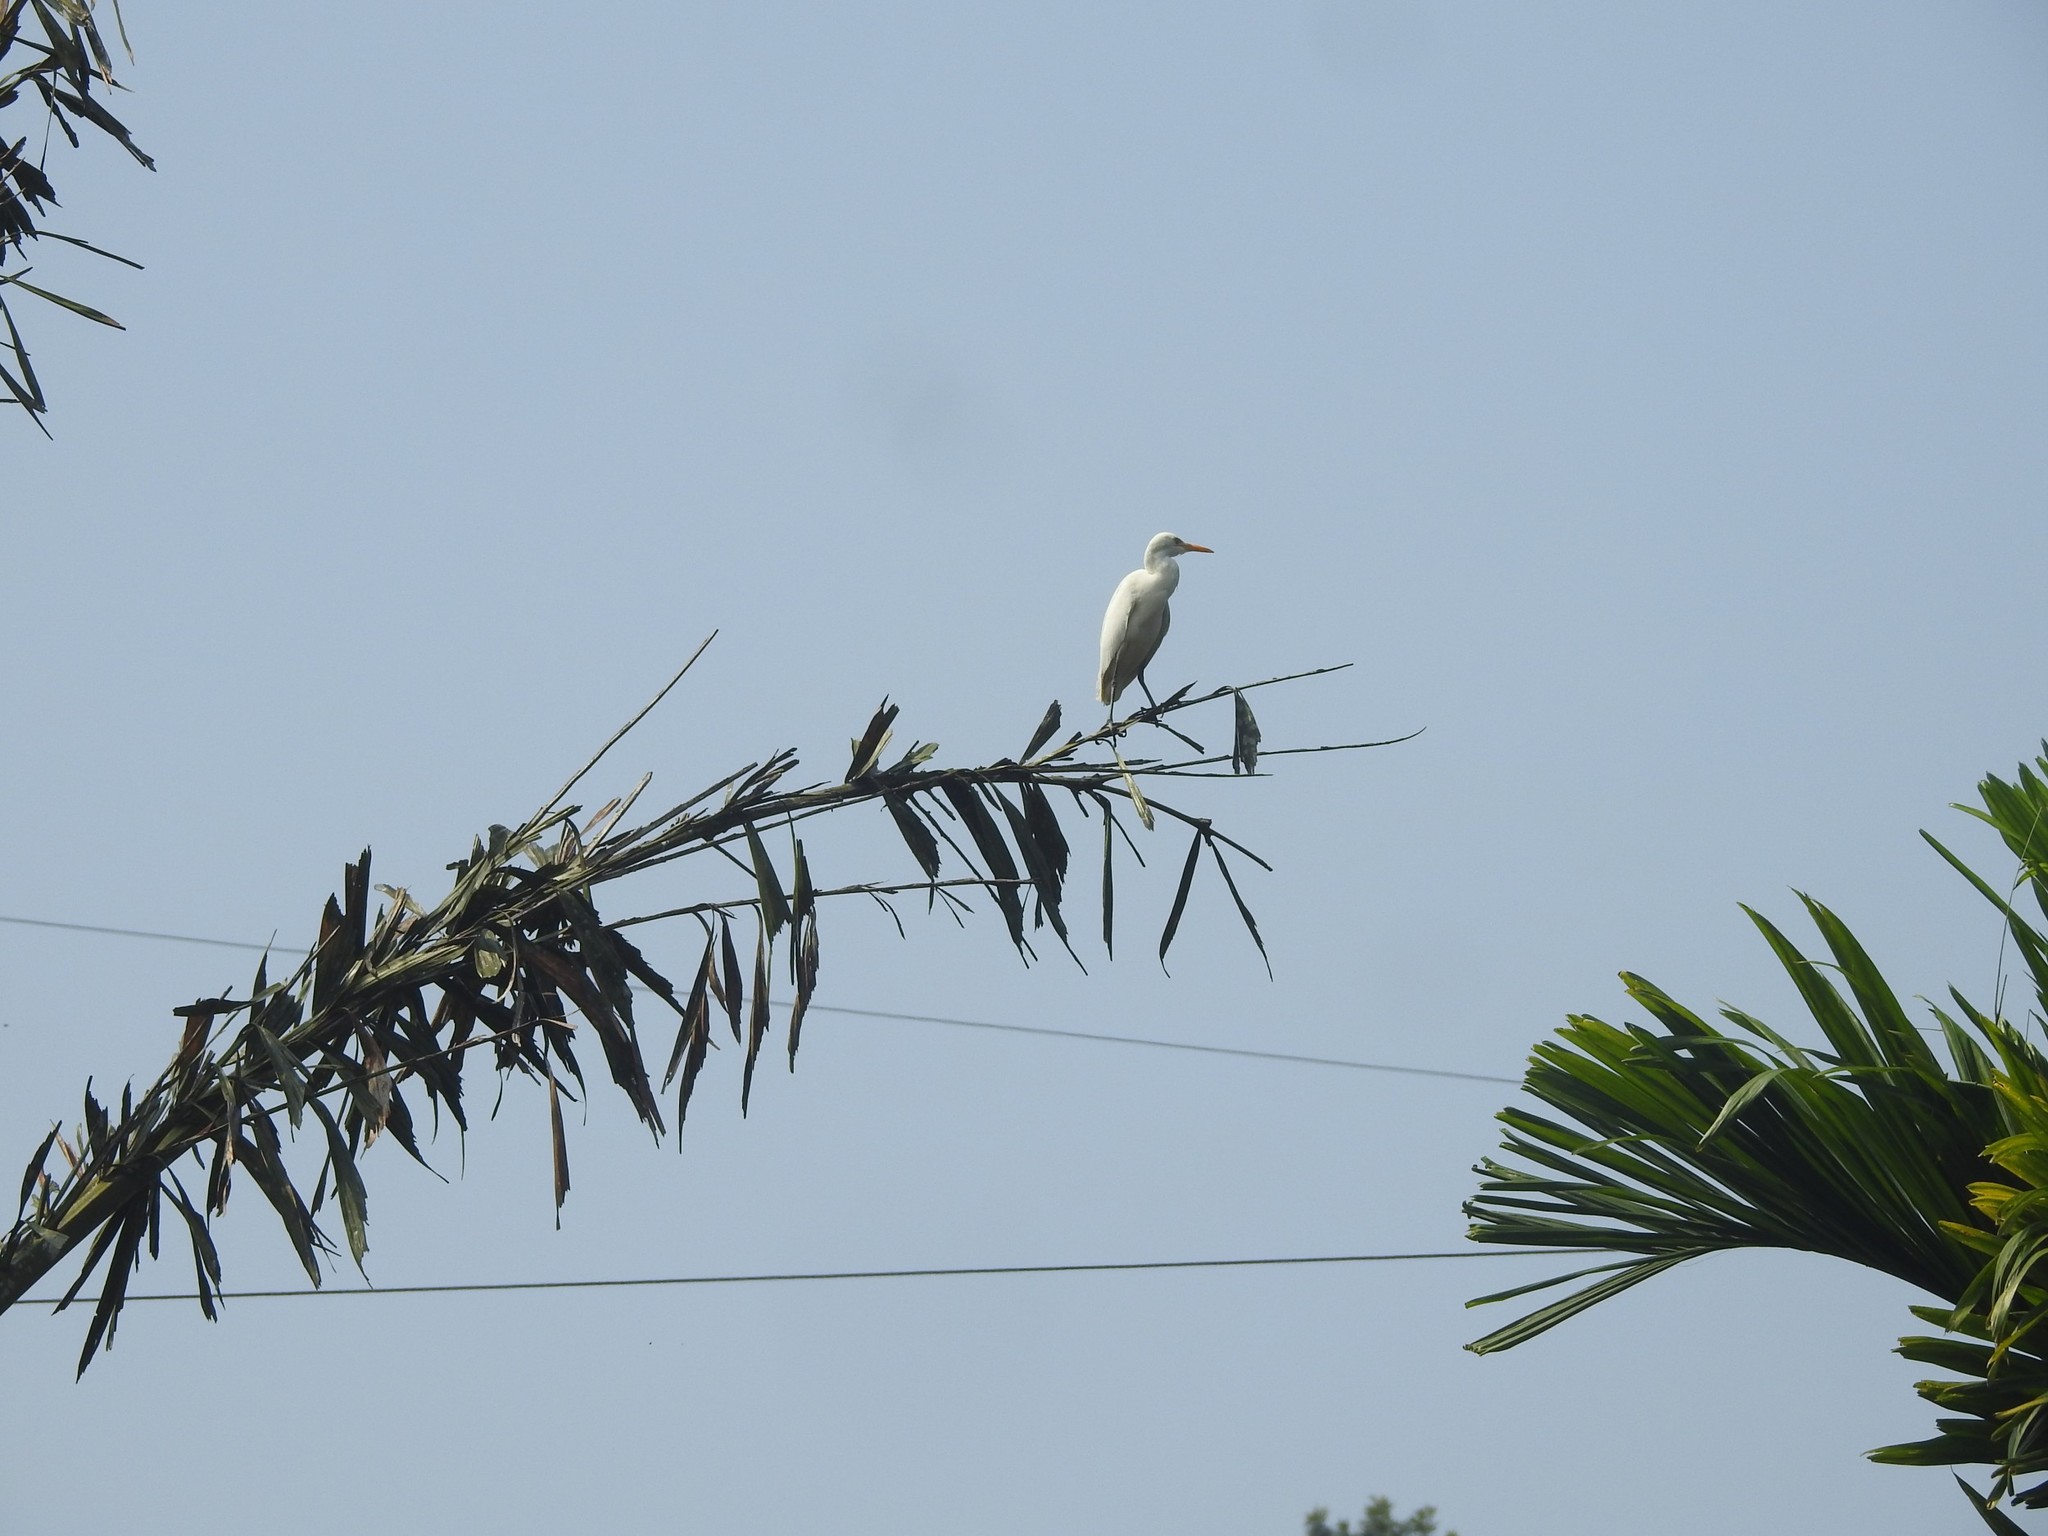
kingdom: Animalia
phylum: Chordata
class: Aves
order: Pelecaniformes
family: Ardeidae
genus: Bubulcus
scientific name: Bubulcus coromandus
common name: Eastern cattle egret
